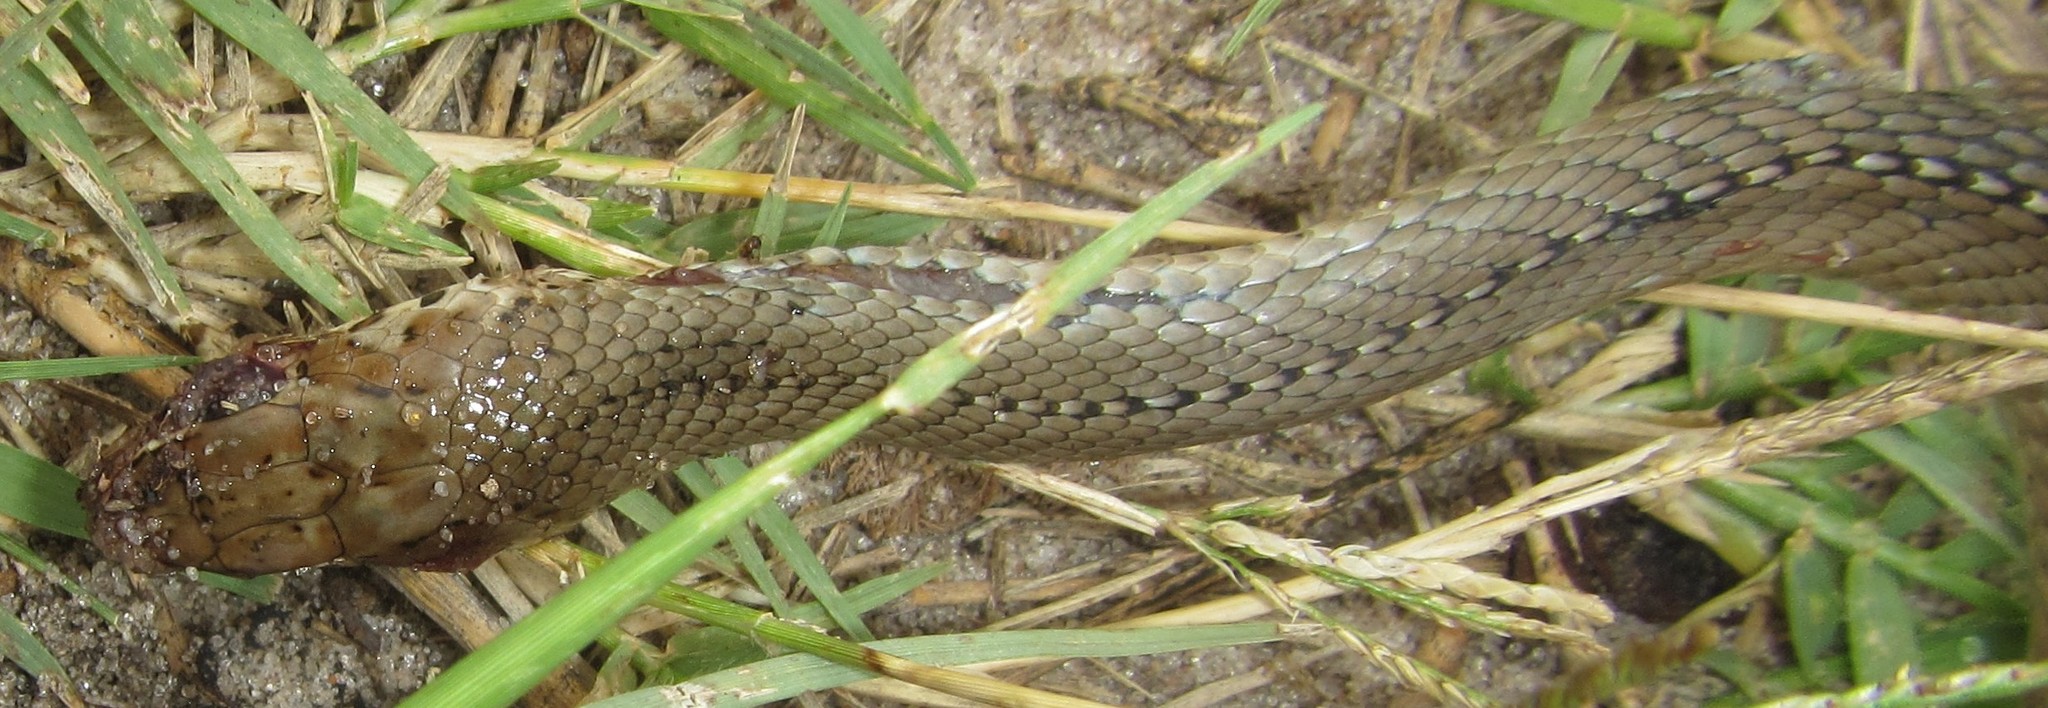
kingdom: Animalia
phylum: Chordata
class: Squamata
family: Psammophiidae
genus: Psammophis
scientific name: Psammophis mossambicus
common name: Olive grass snake
